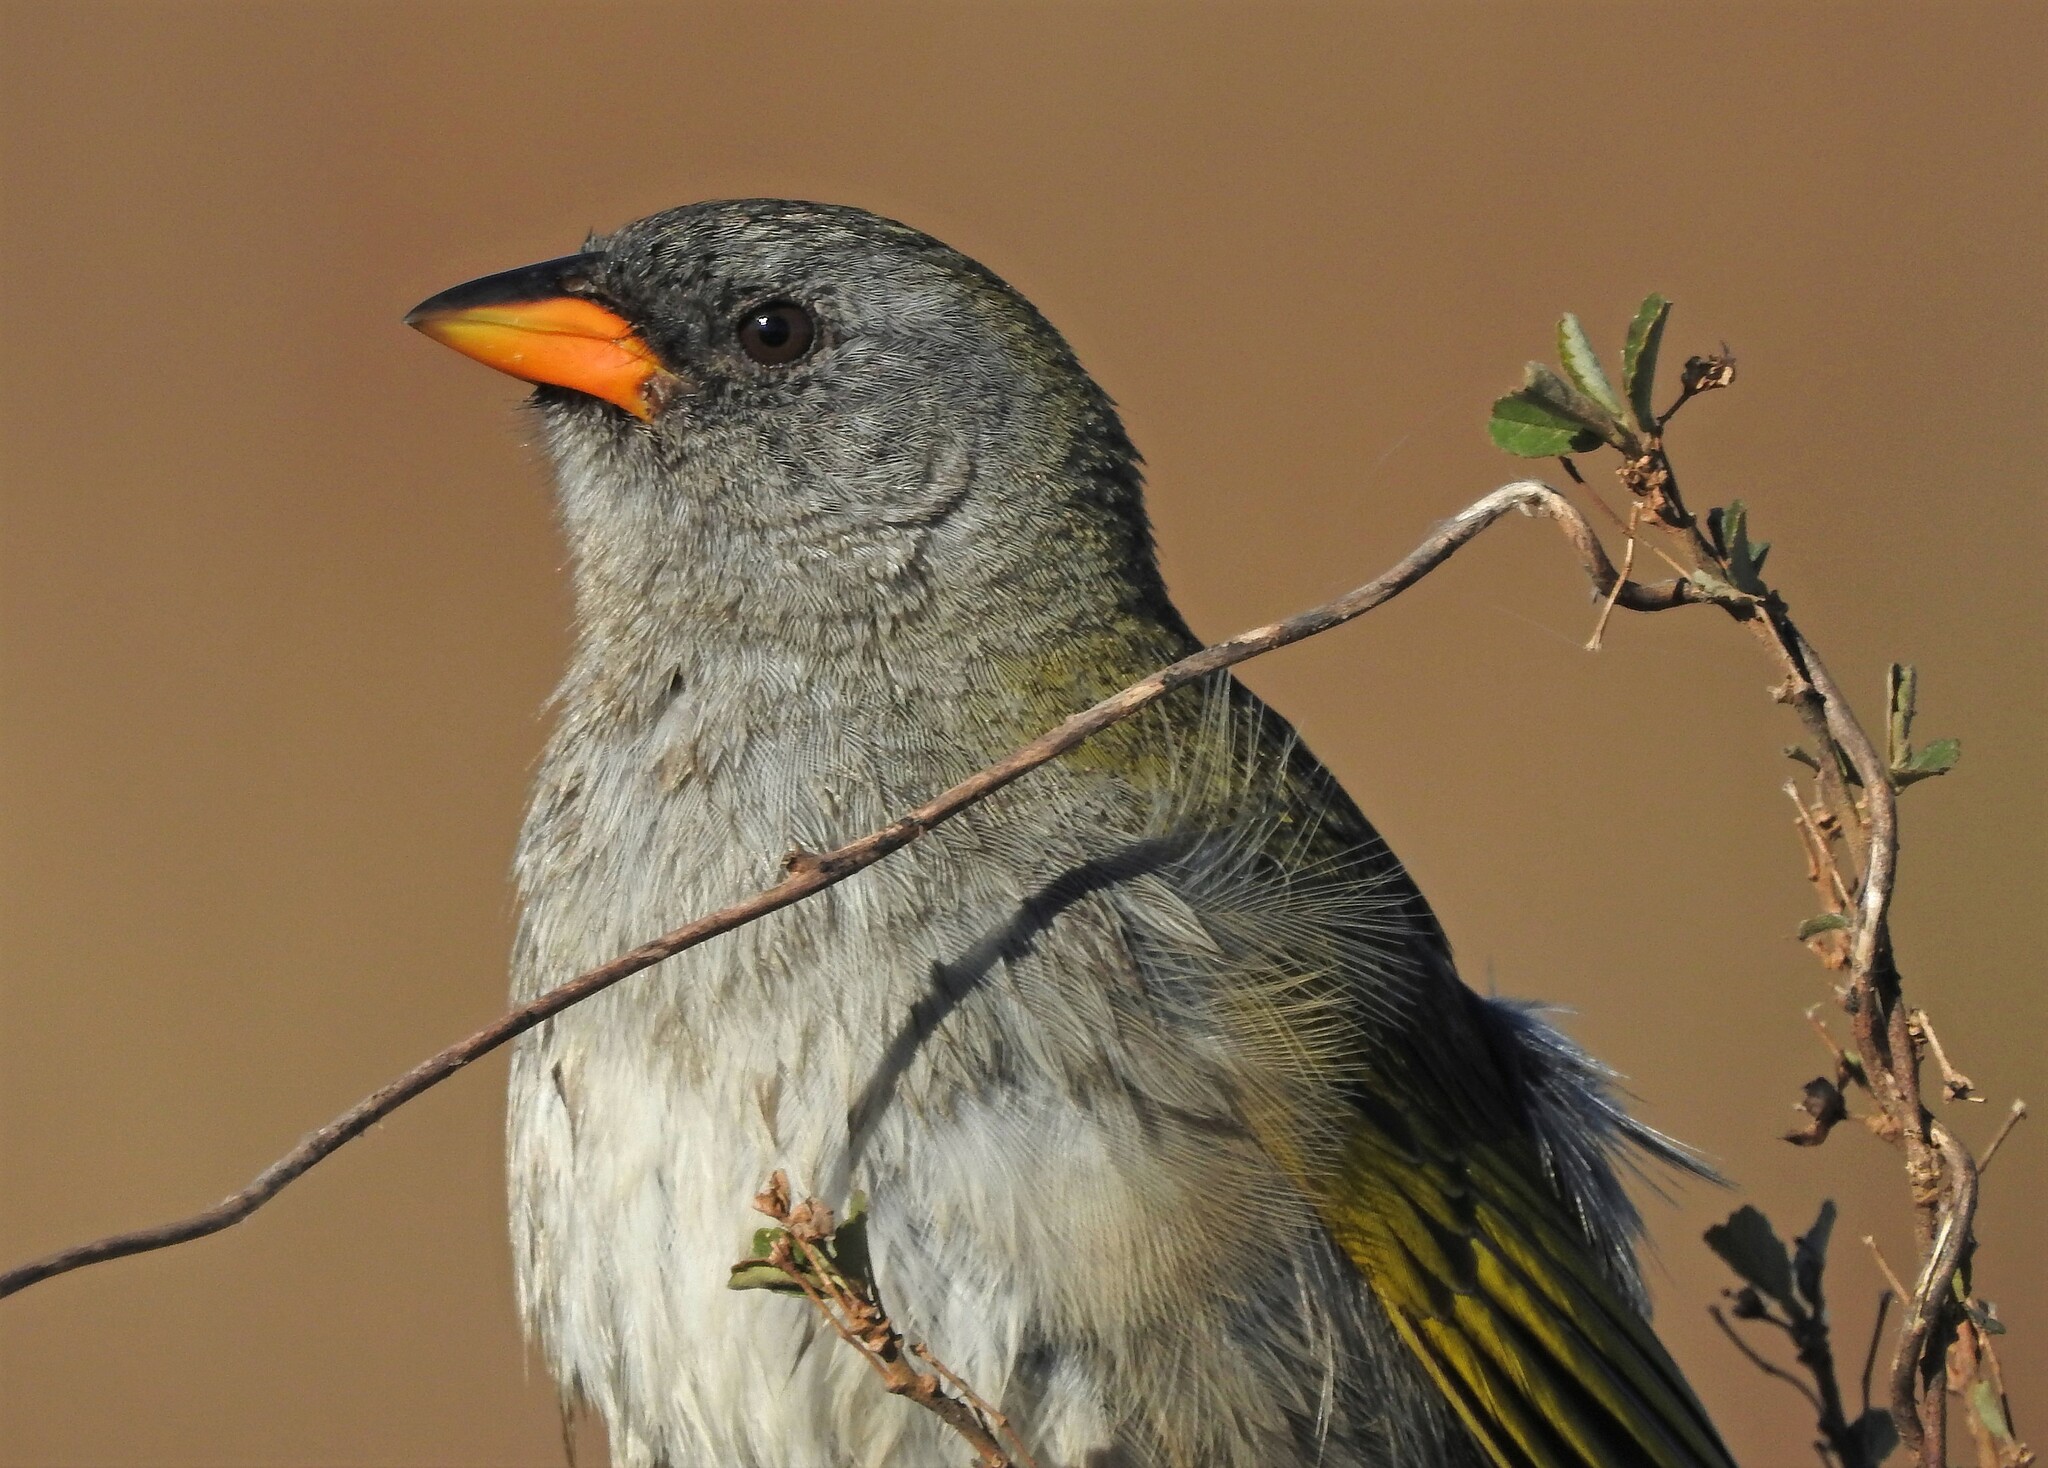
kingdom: Animalia
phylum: Chordata
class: Aves
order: Passeriformes
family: Thraupidae
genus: Embernagra
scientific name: Embernagra platensis
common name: Pampa finch
